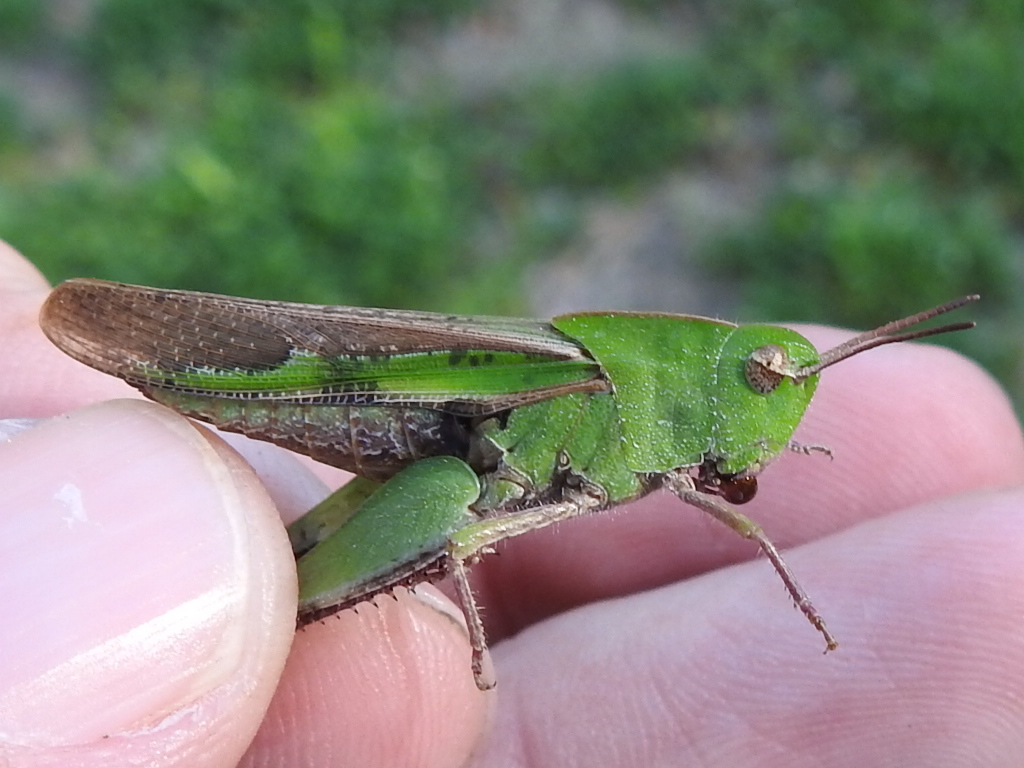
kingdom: Animalia
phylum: Arthropoda
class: Insecta
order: Orthoptera
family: Acrididae
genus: Chortophaga
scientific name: Chortophaga viridifasciata
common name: Green-striped grasshopper
